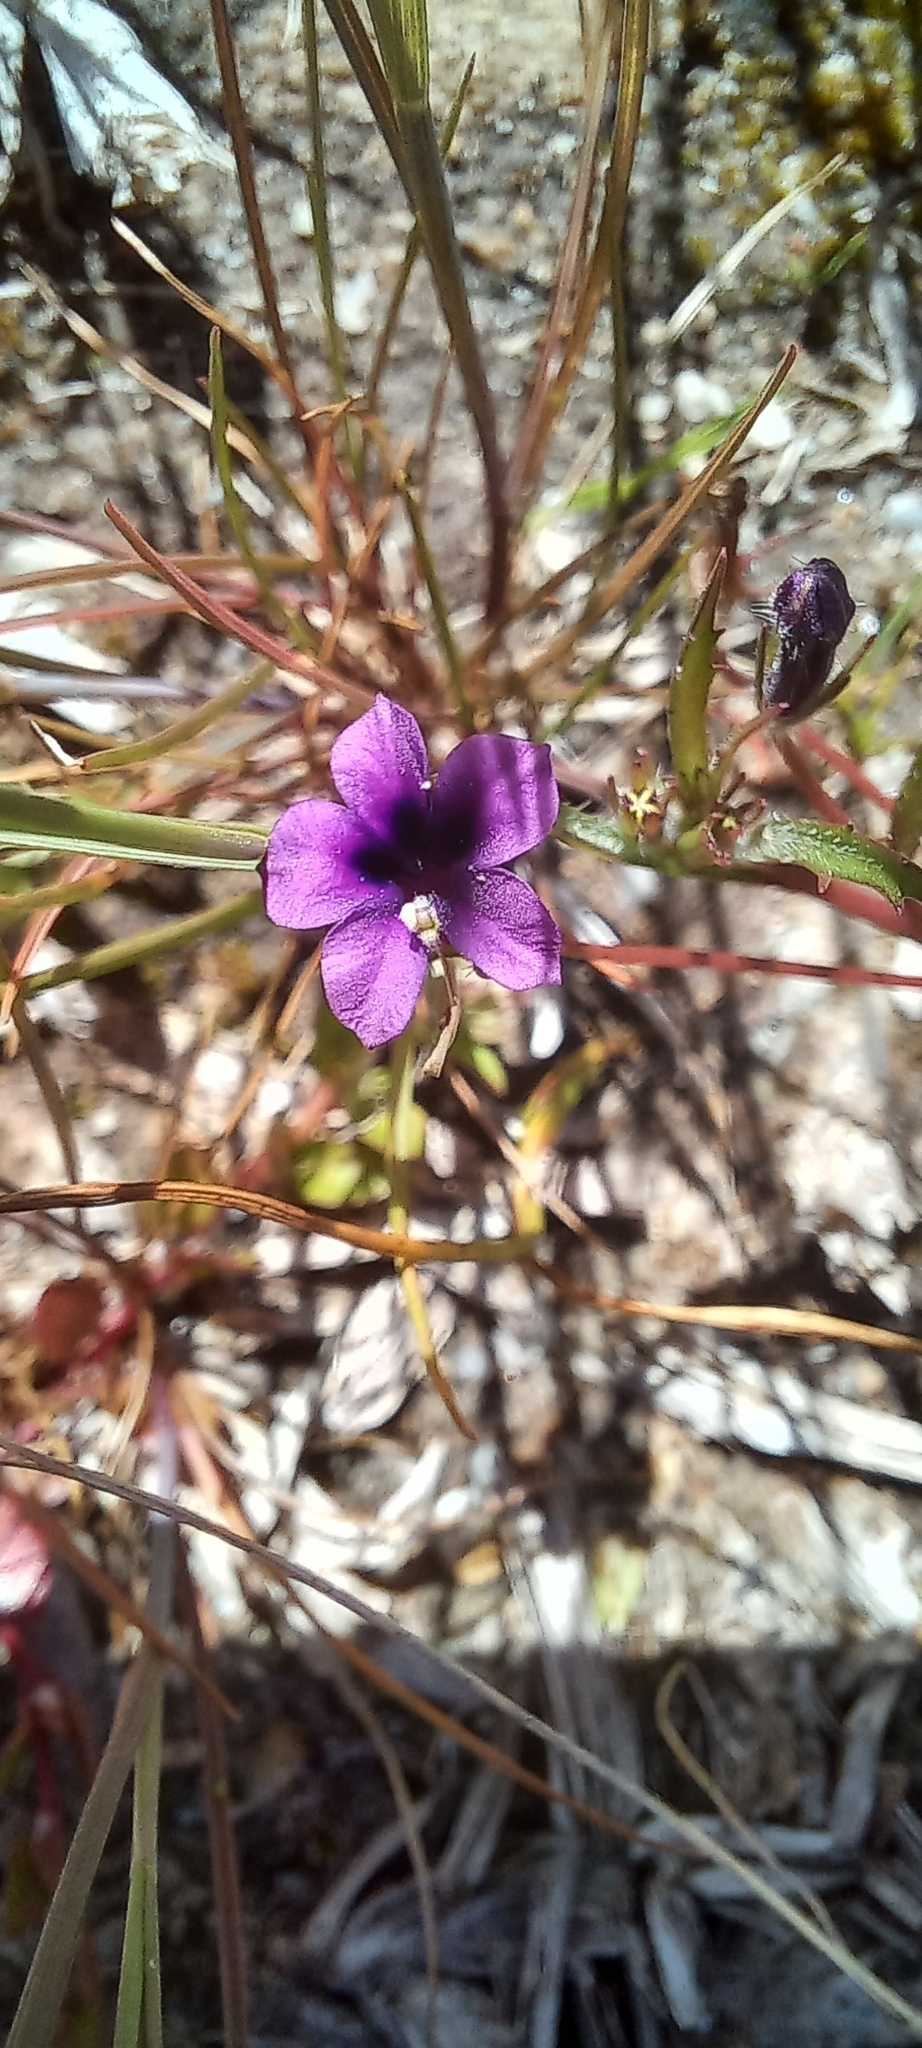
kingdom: Plantae
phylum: Tracheophyta
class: Magnoliopsida
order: Asterales
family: Campanulaceae
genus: Monopsis
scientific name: Monopsis debilis
